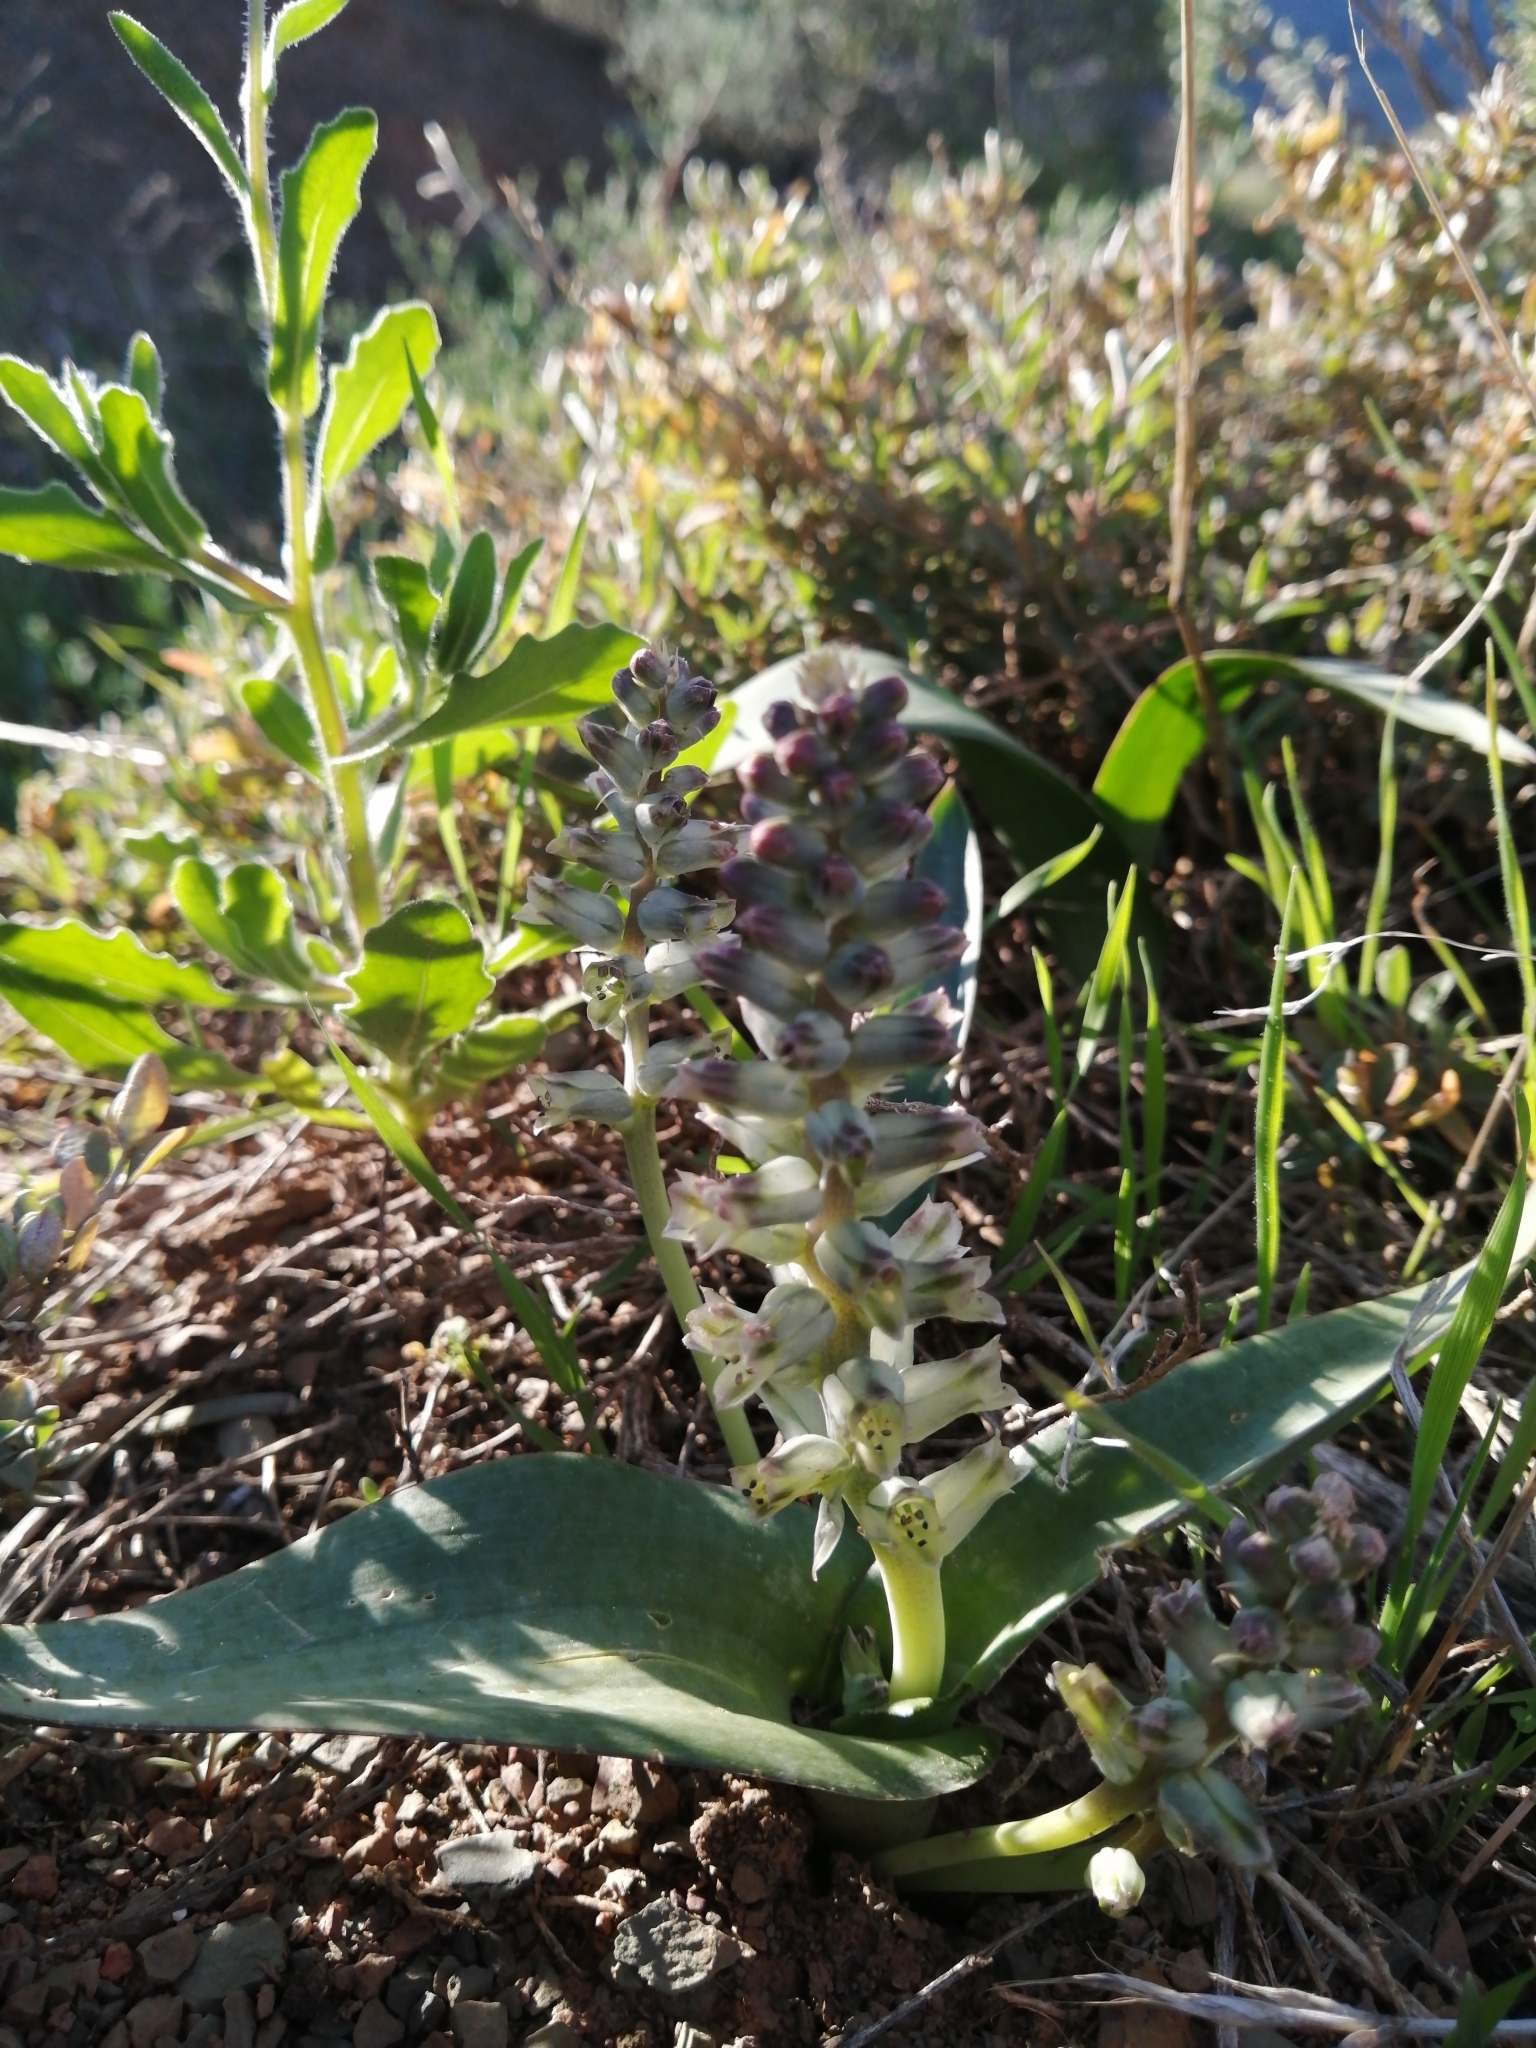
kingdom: Plantae
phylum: Tracheophyta
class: Liliopsida
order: Asparagales
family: Asparagaceae
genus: Lachenalia
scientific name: Lachenalia aurioliae
